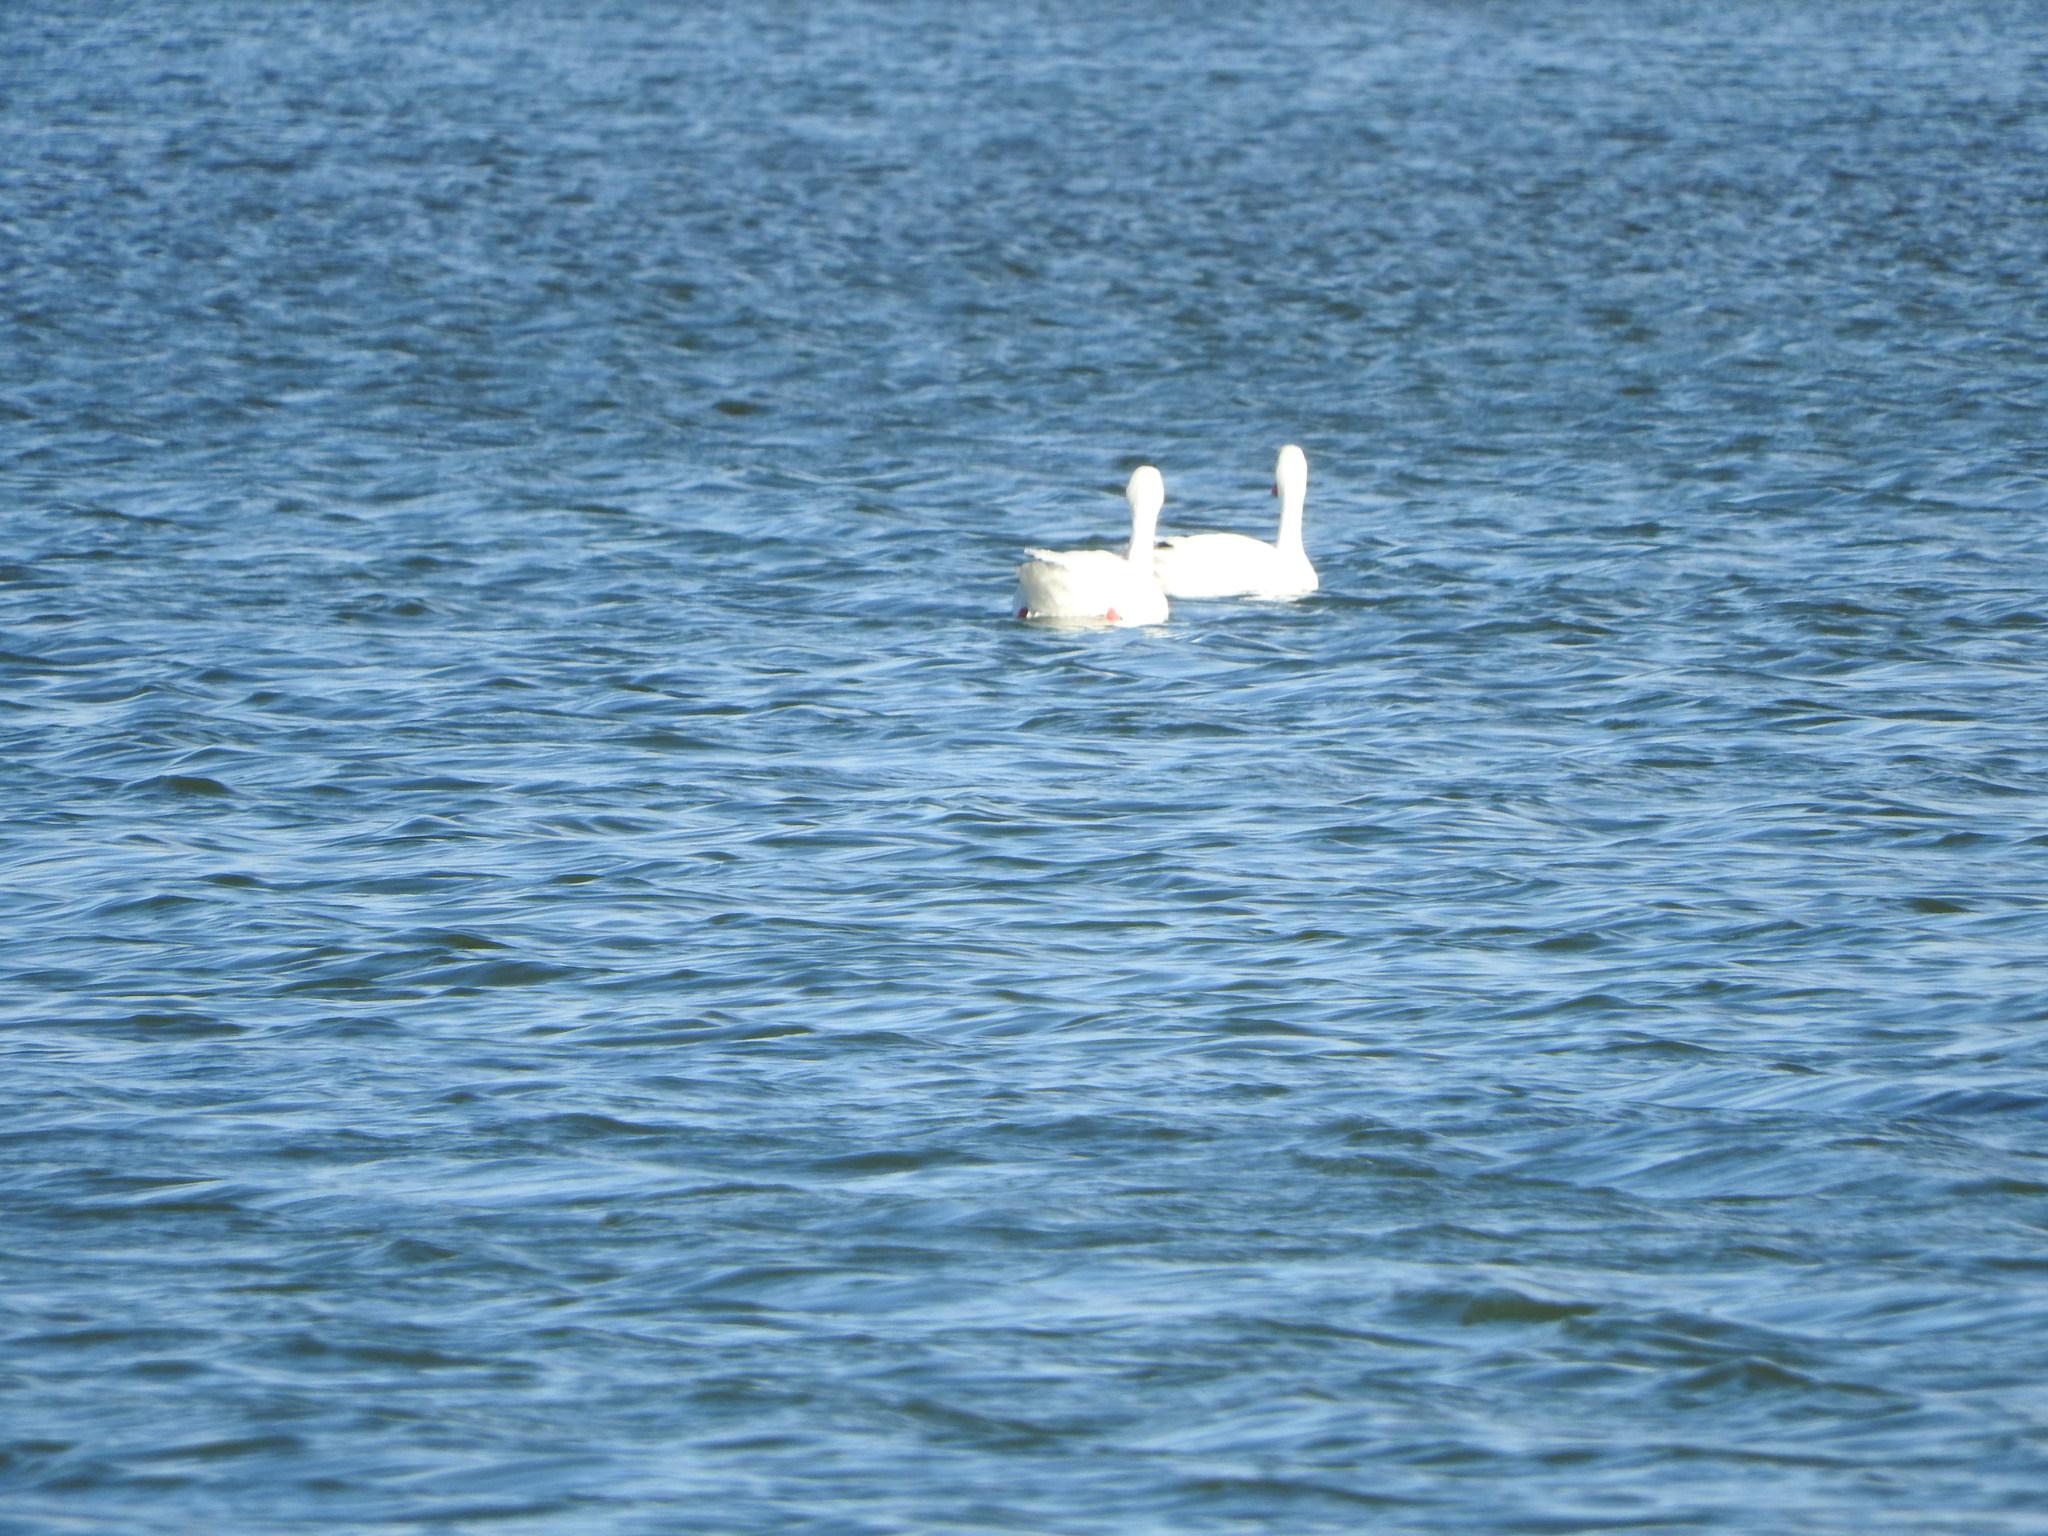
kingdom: Animalia
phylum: Chordata
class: Aves
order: Anseriformes
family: Anatidae
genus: Coscoroba
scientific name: Coscoroba coscoroba
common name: Coscoroba swan
